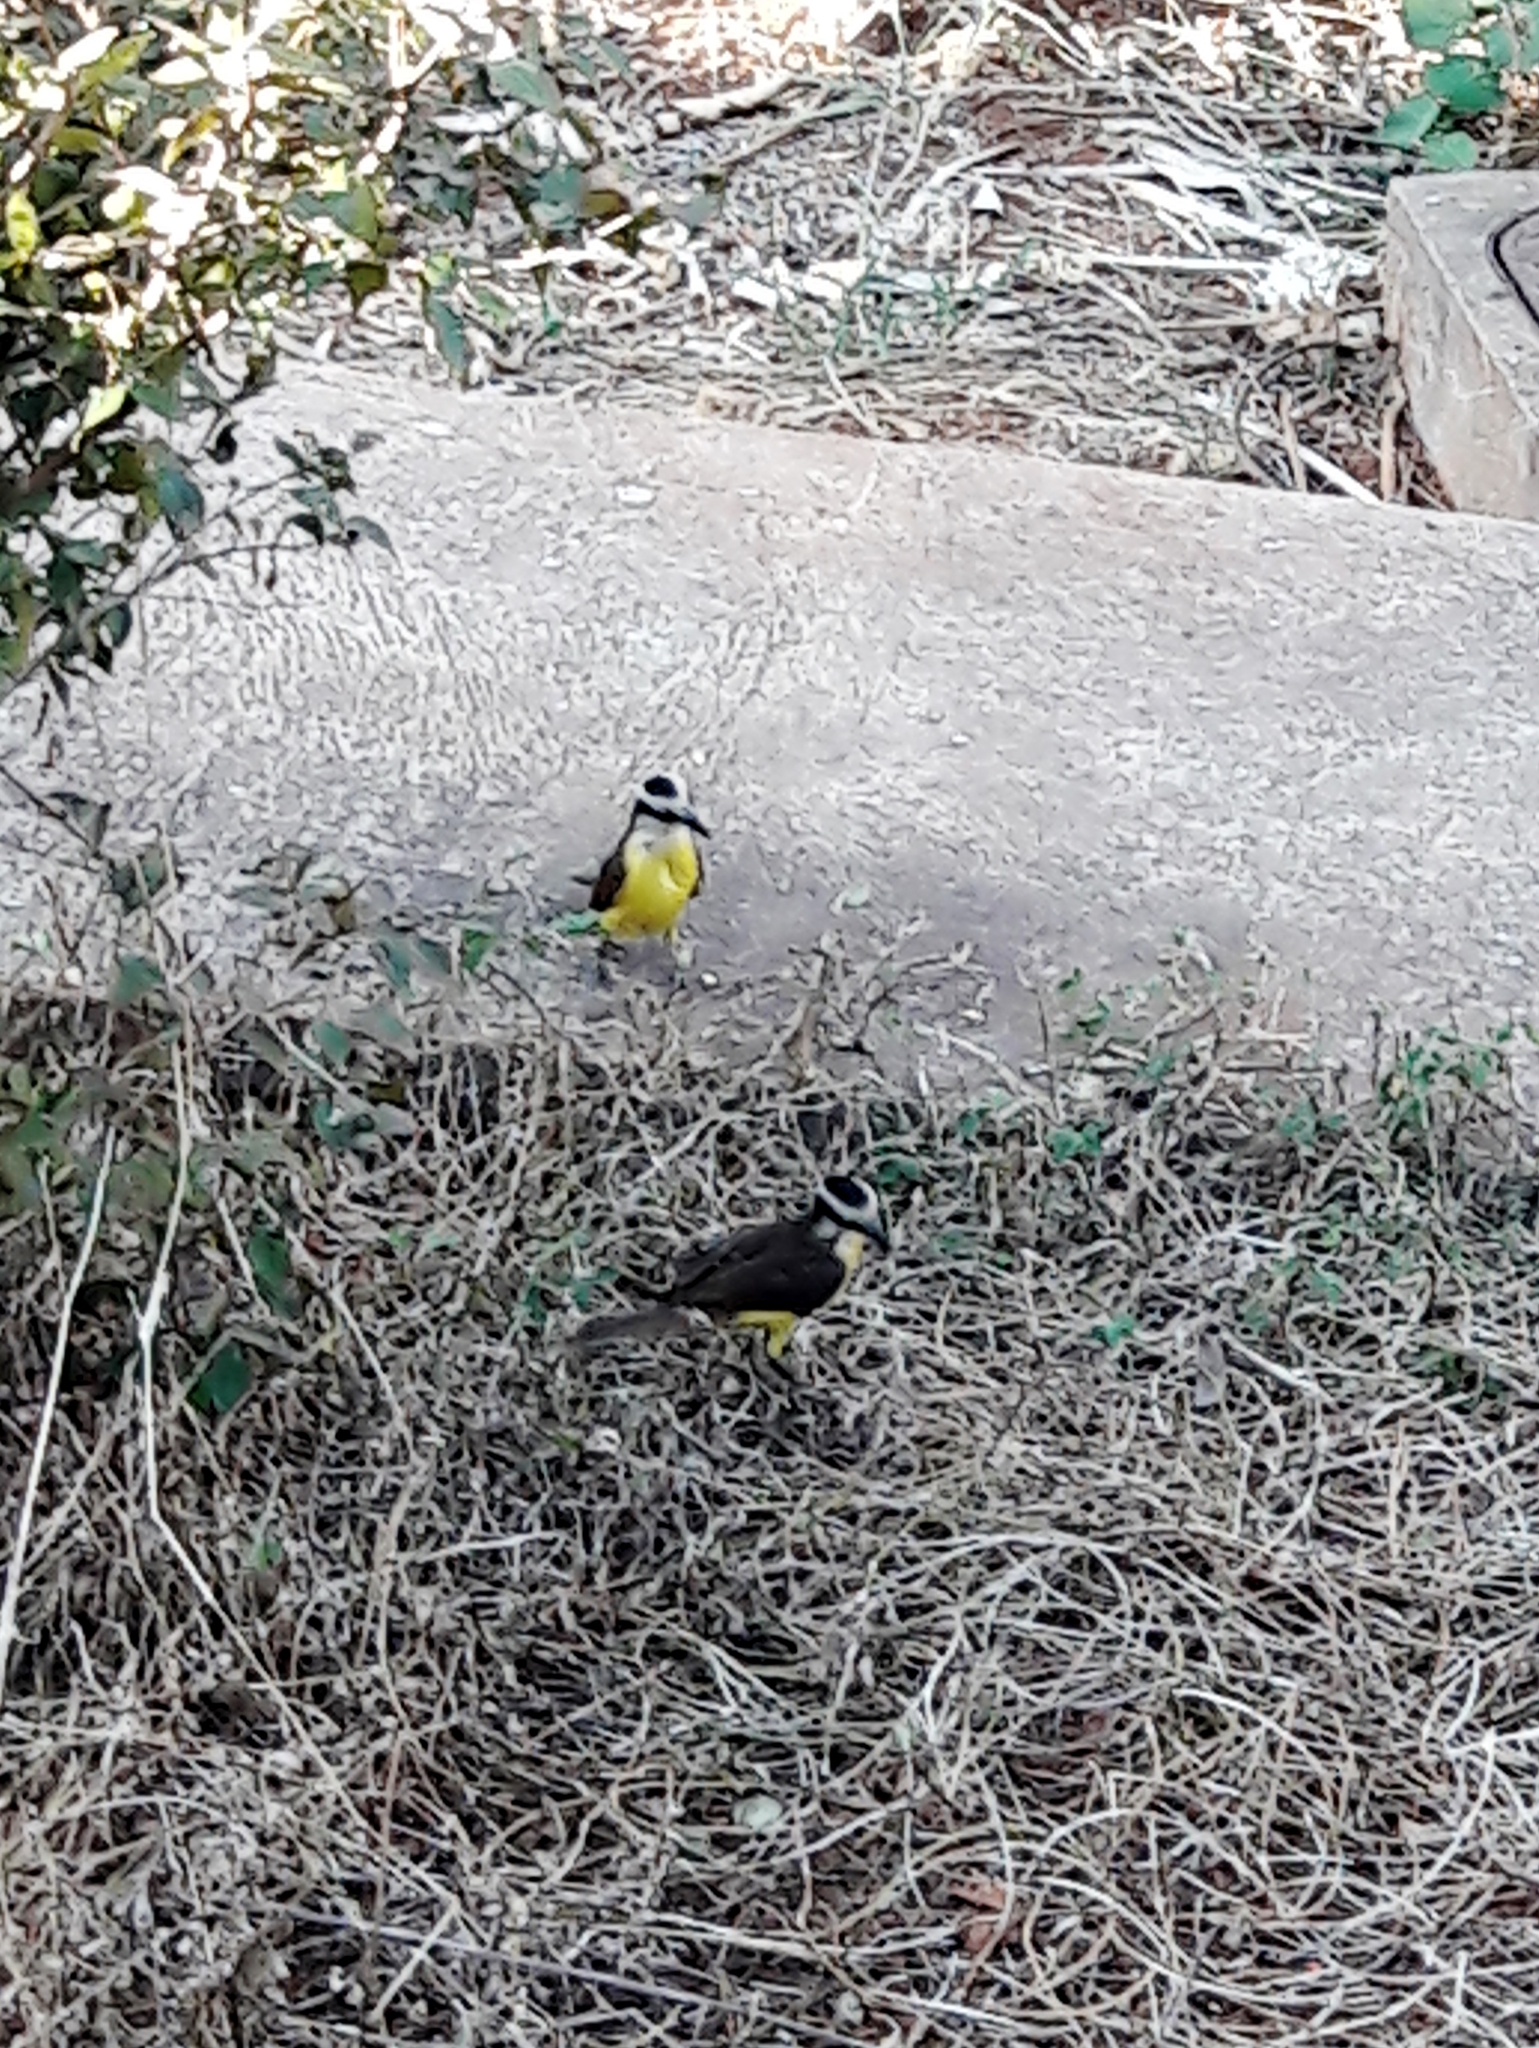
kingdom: Animalia
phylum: Chordata
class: Aves
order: Passeriformes
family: Tyrannidae
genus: Pitangus
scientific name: Pitangus sulphuratus
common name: Great kiskadee
